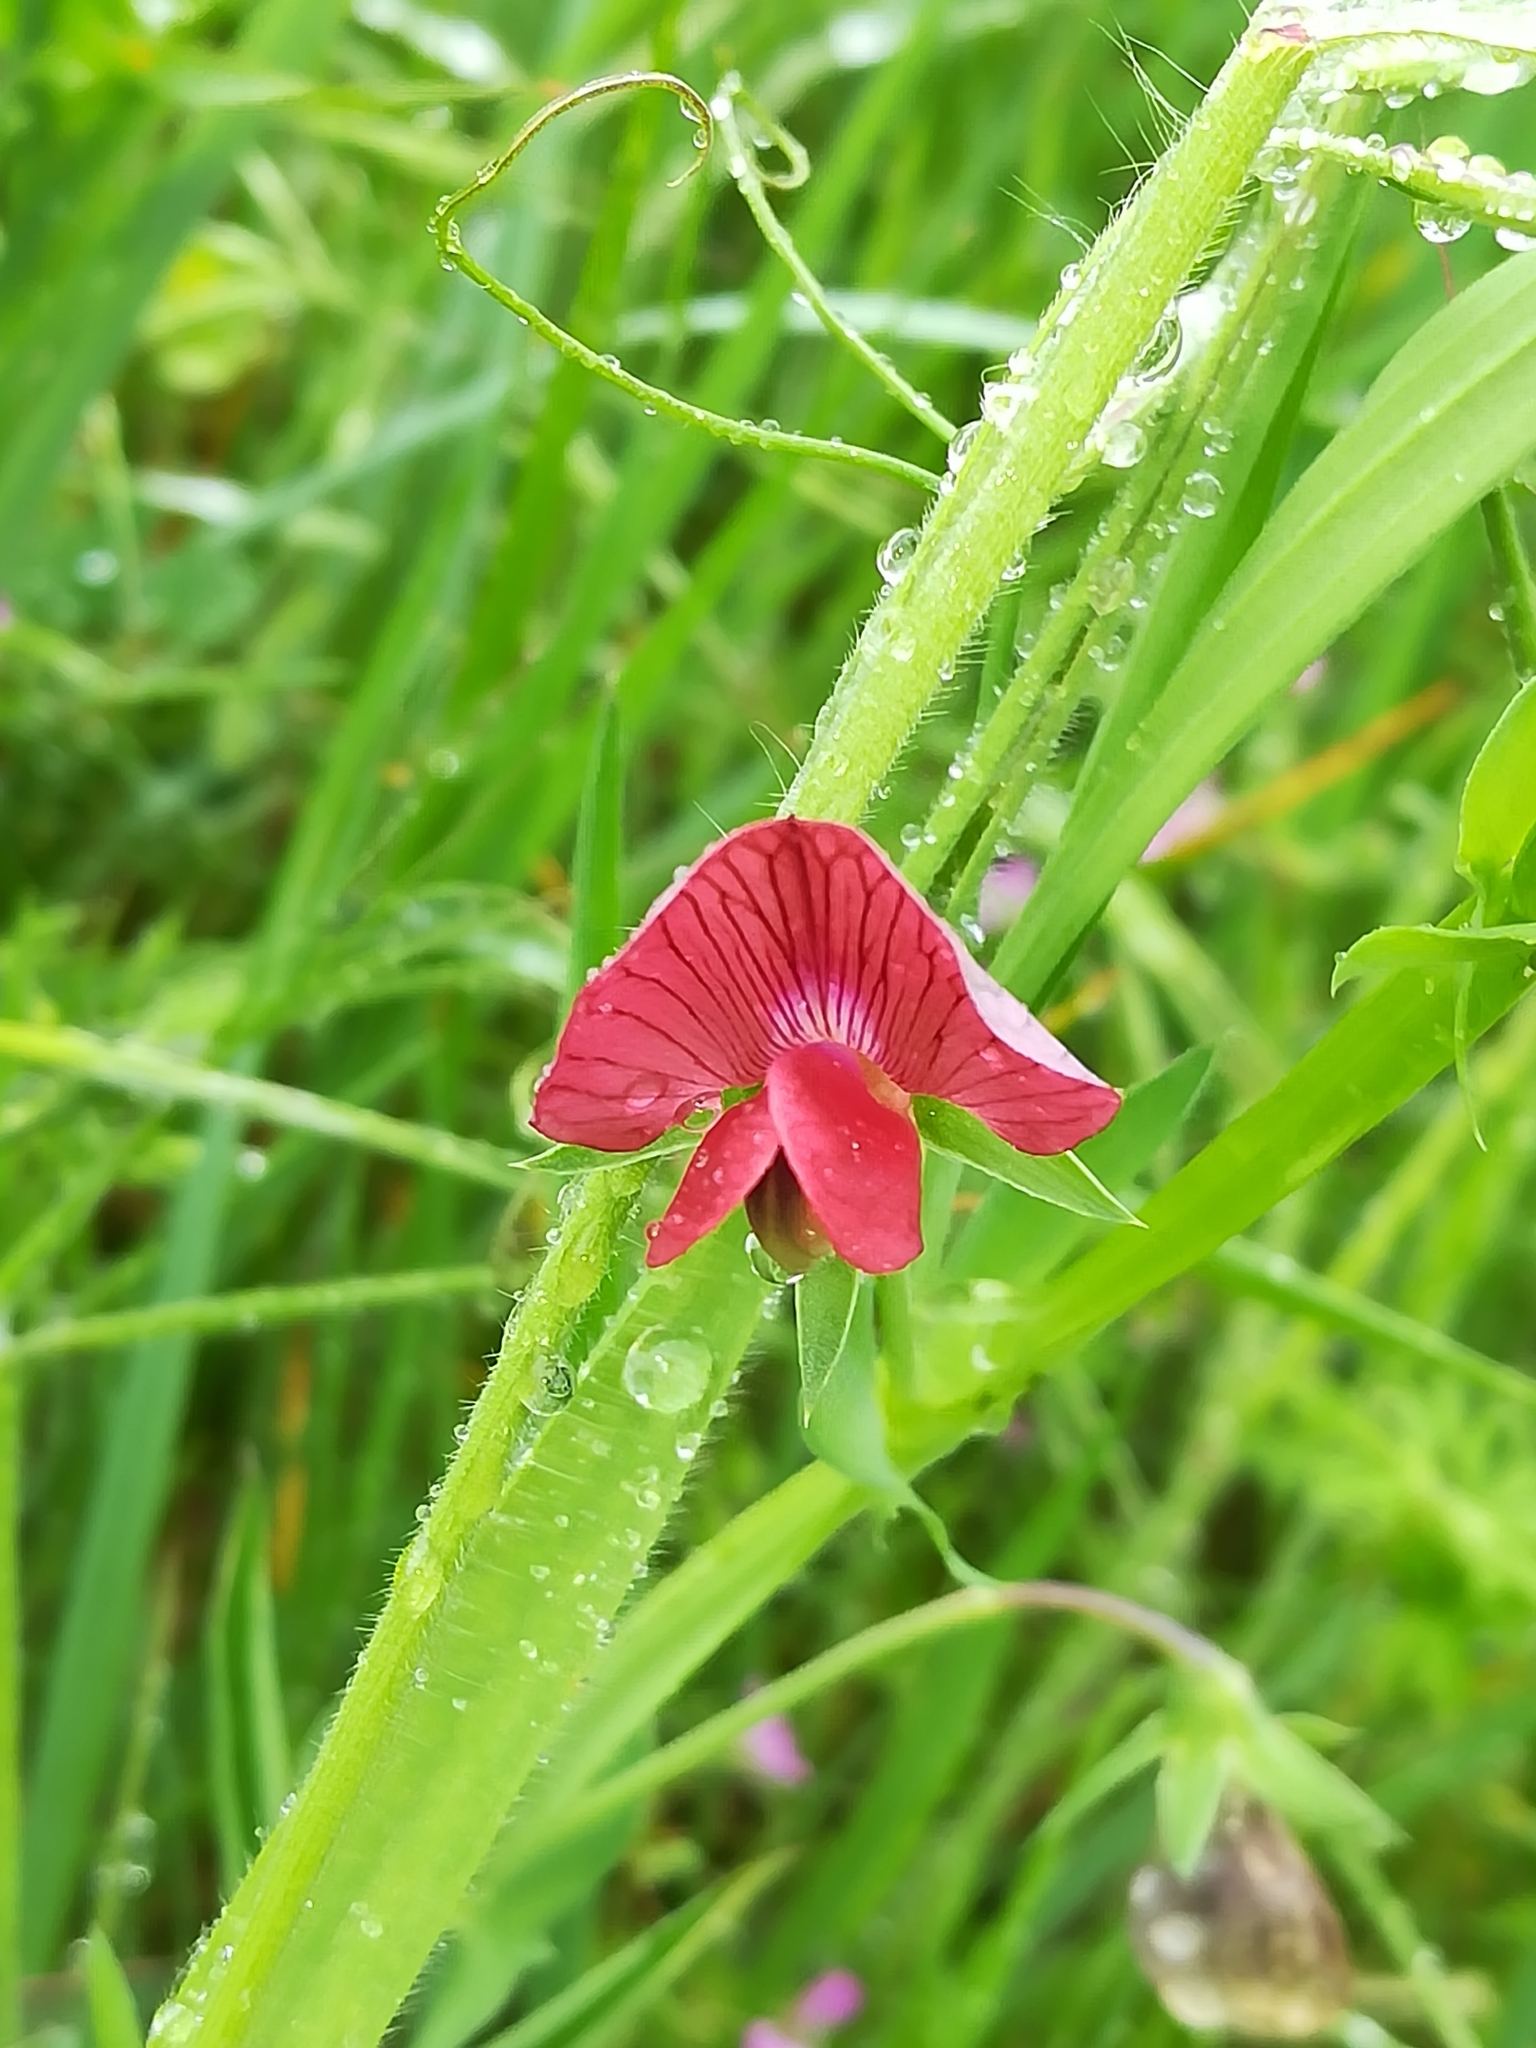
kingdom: Plantae
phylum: Tracheophyta
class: Magnoliopsida
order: Fabales
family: Fabaceae
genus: Lathyrus
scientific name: Lathyrus cicera
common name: Red vetchling
